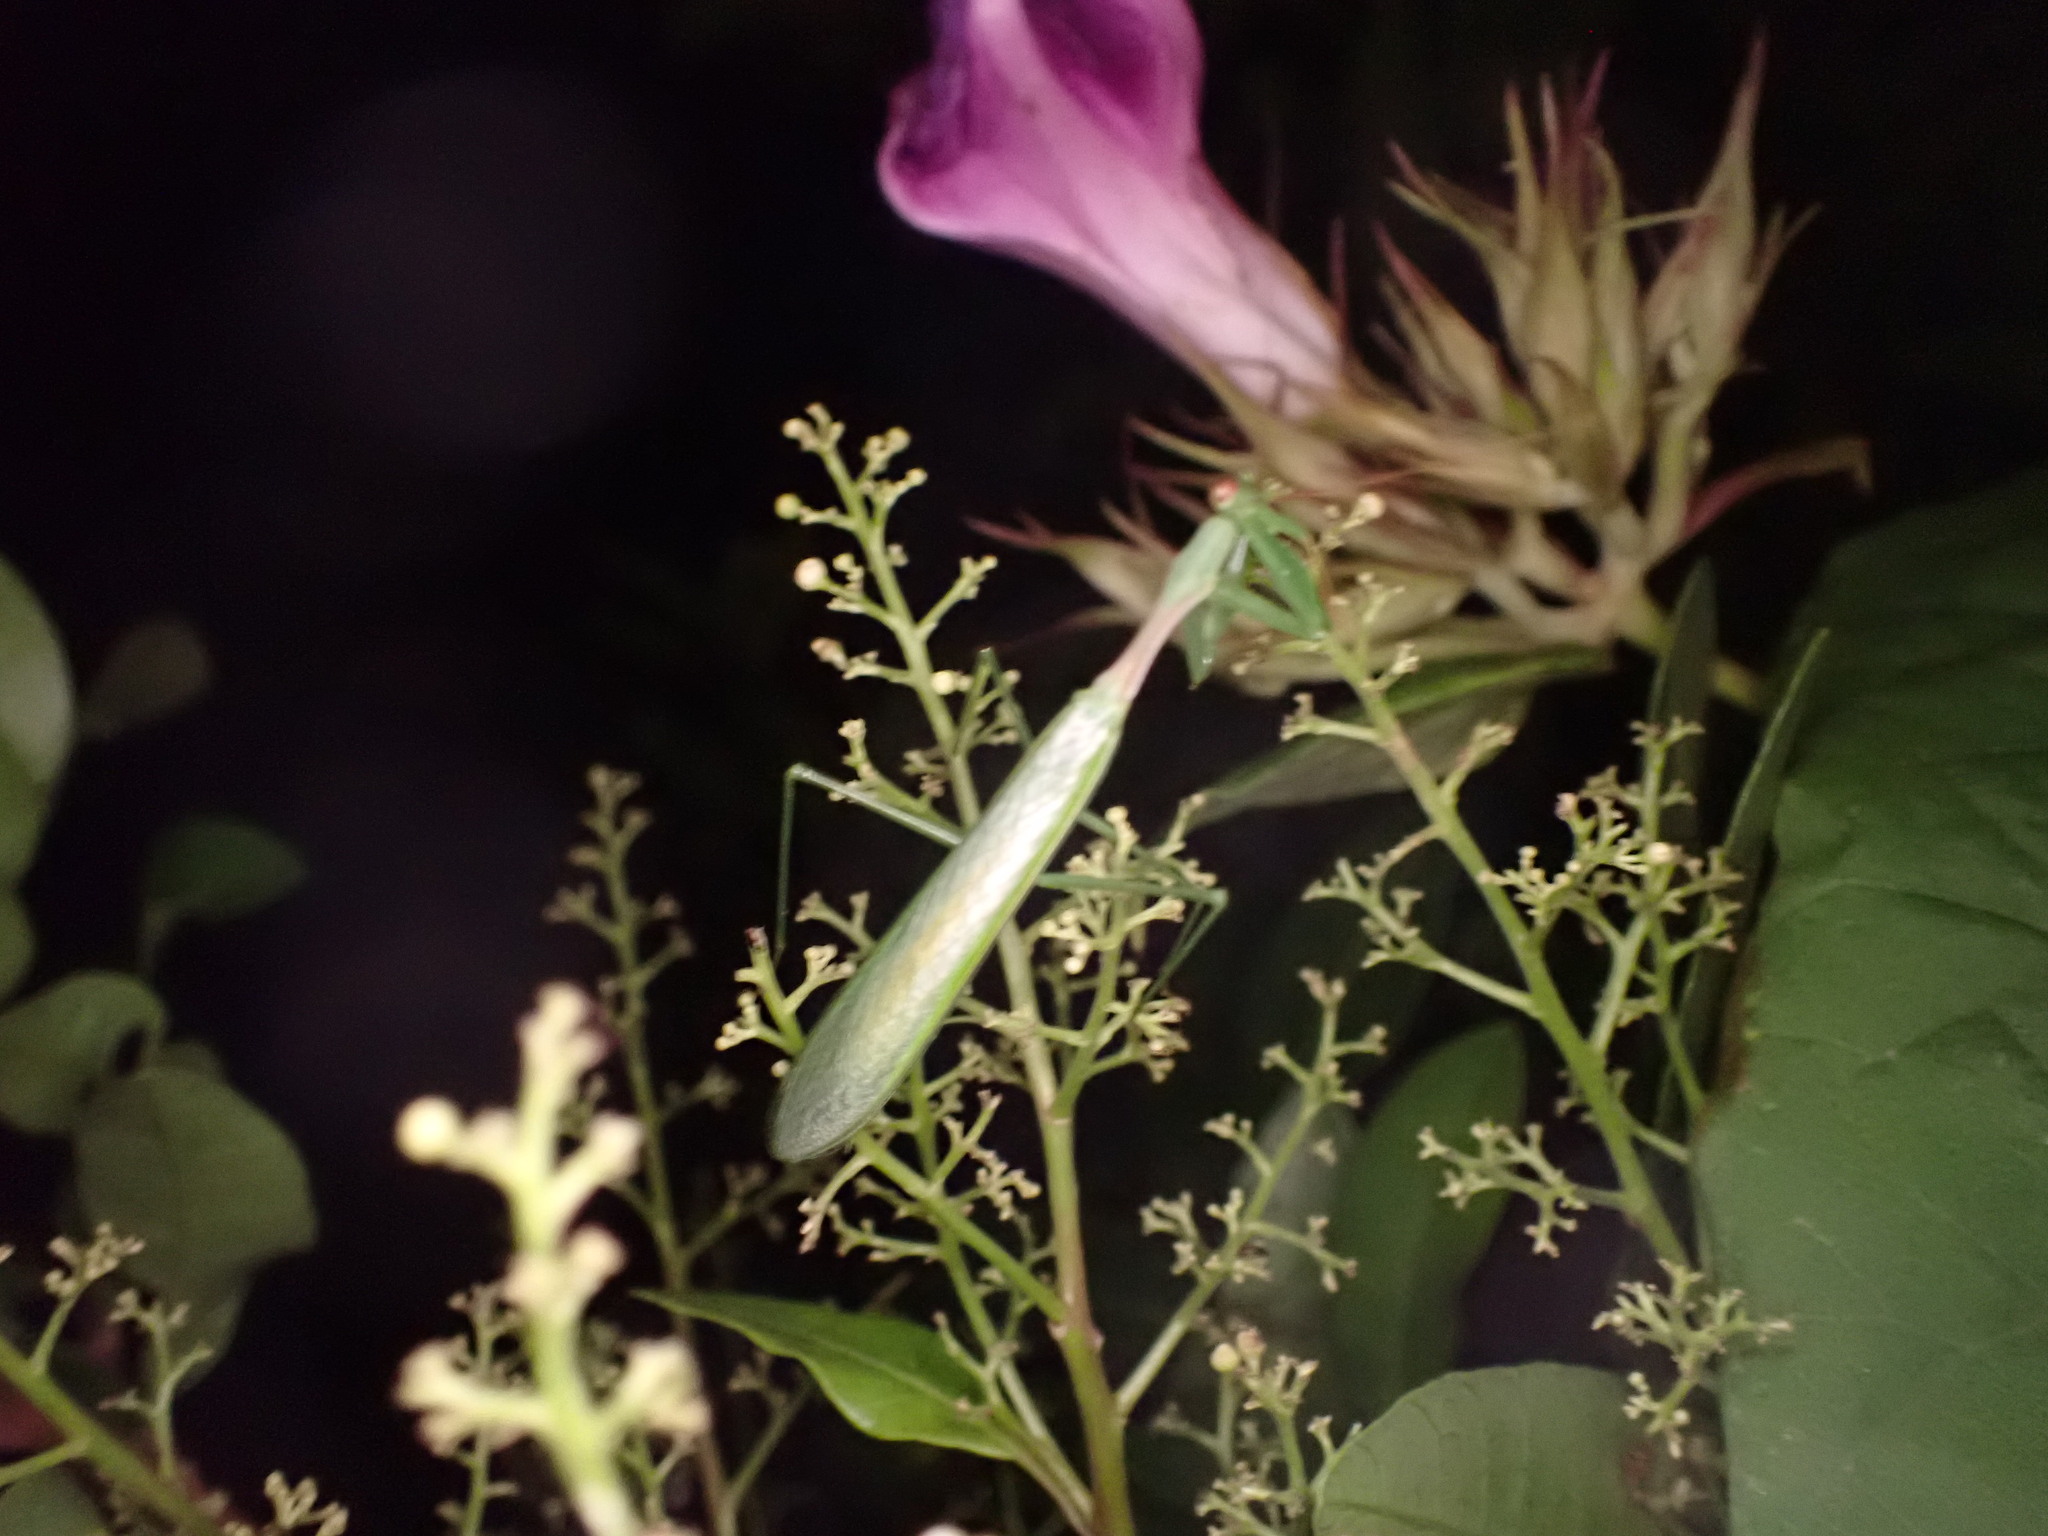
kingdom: Animalia
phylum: Arthropoda
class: Insecta
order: Mantodea
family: Miomantidae
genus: Miomantis
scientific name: Miomantis caffra
